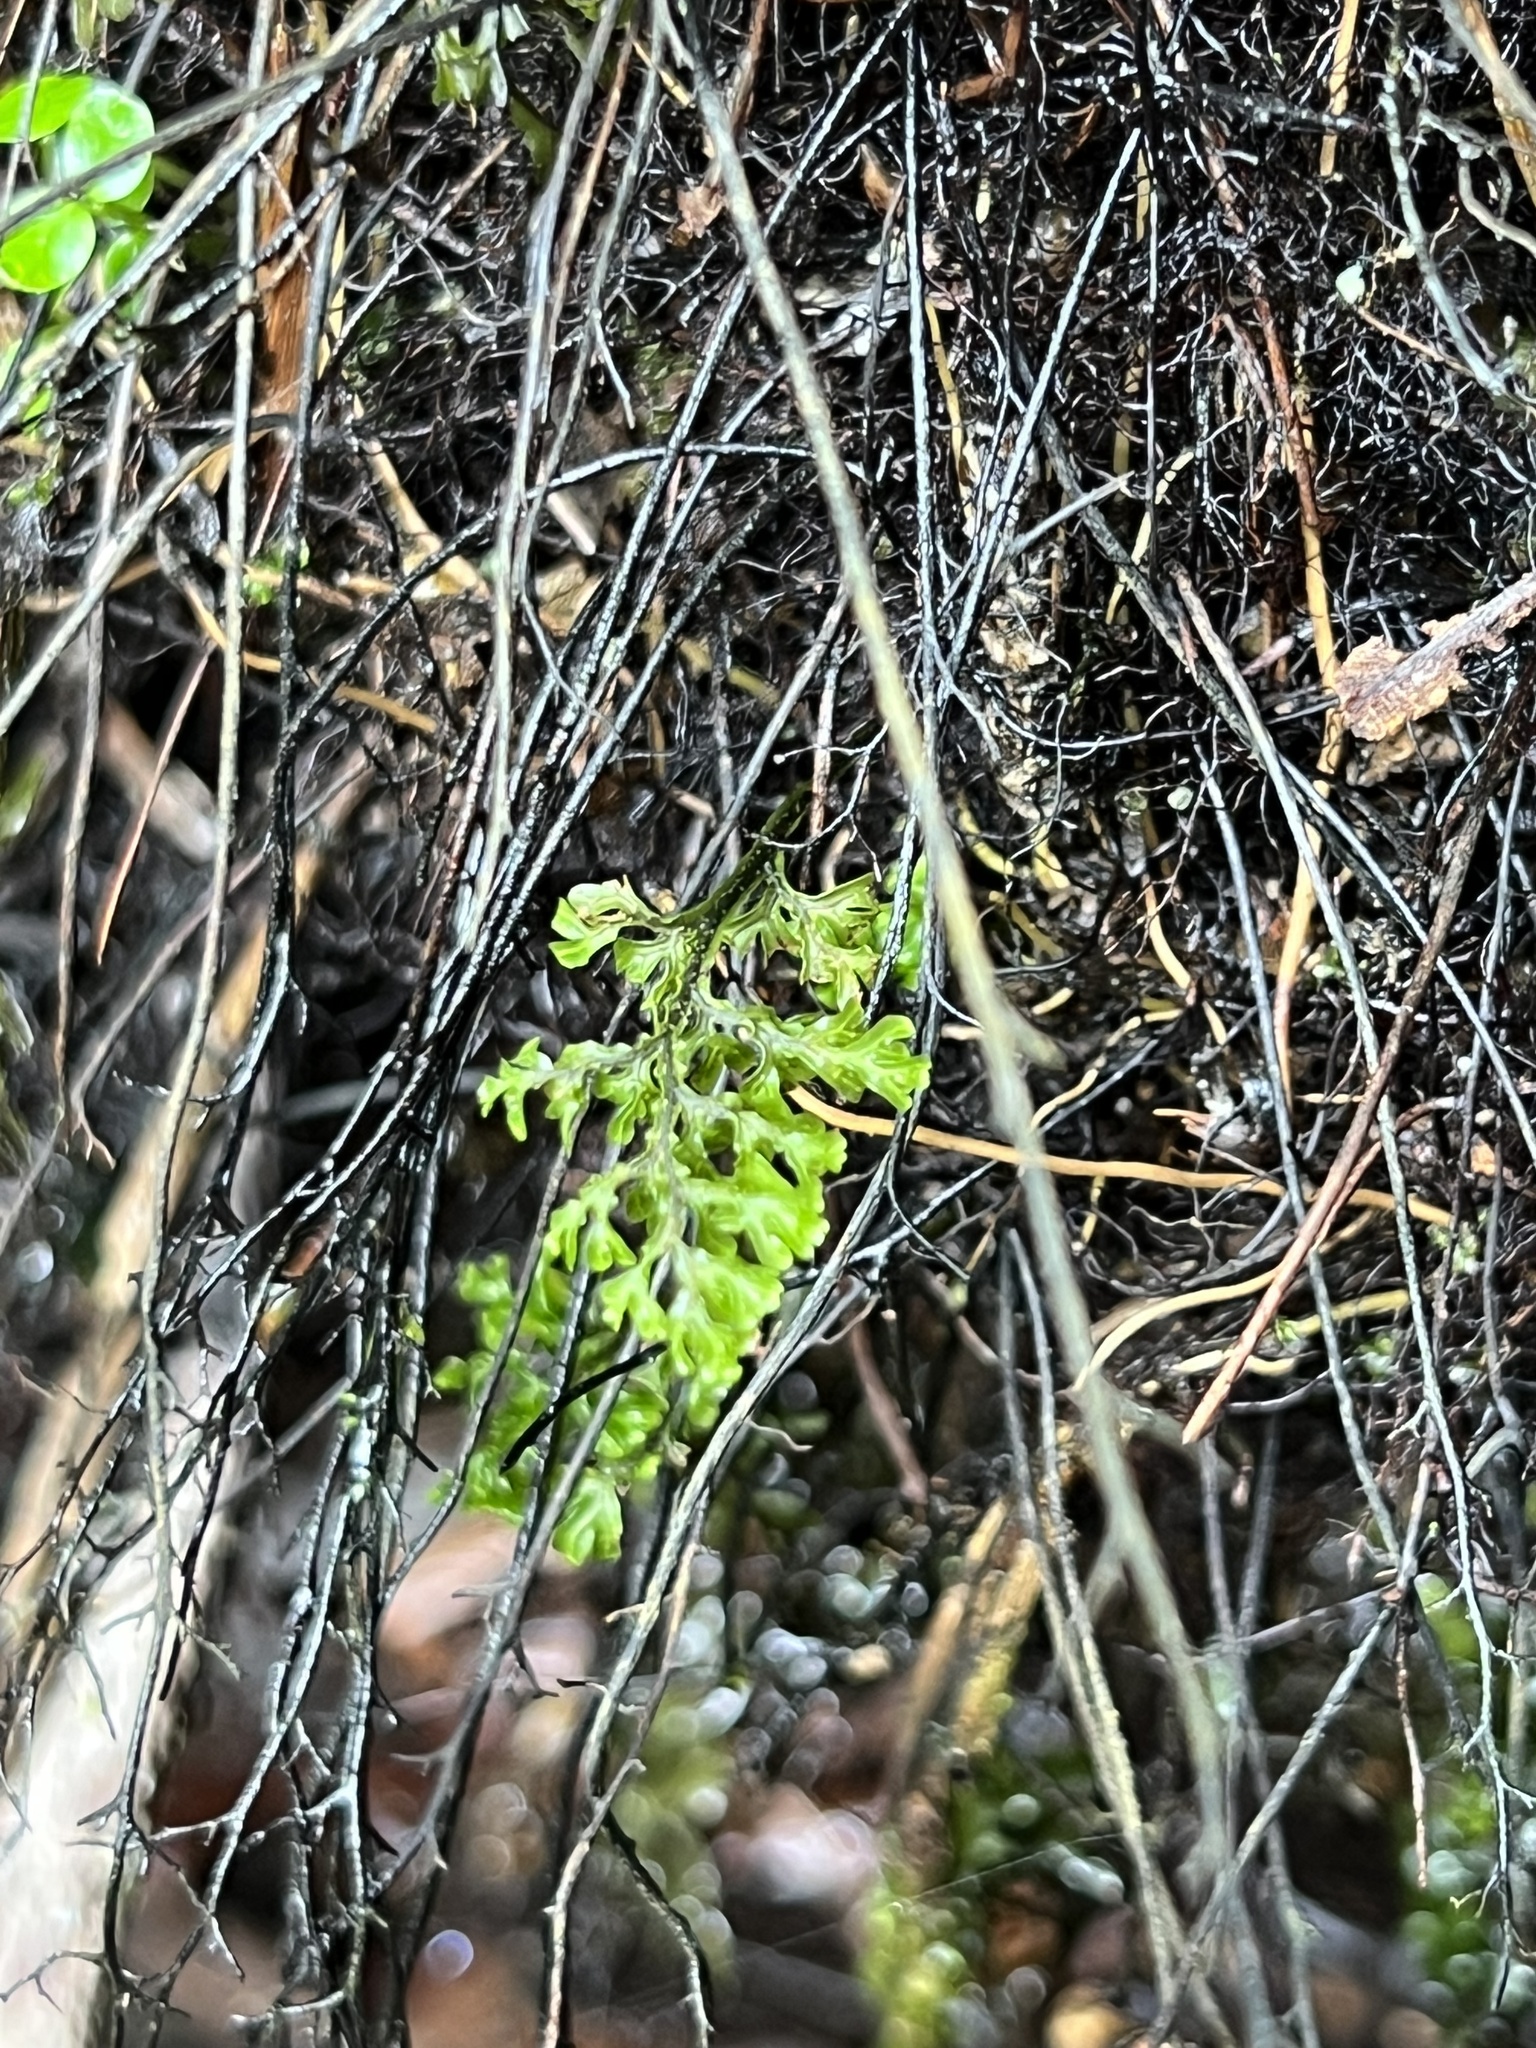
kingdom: Plantae
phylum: Tracheophyta
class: Polypodiopsida
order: Hymenophyllales
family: Hymenophyllaceae
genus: Hymenophyllum
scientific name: Hymenophyllum sanguinolentum
